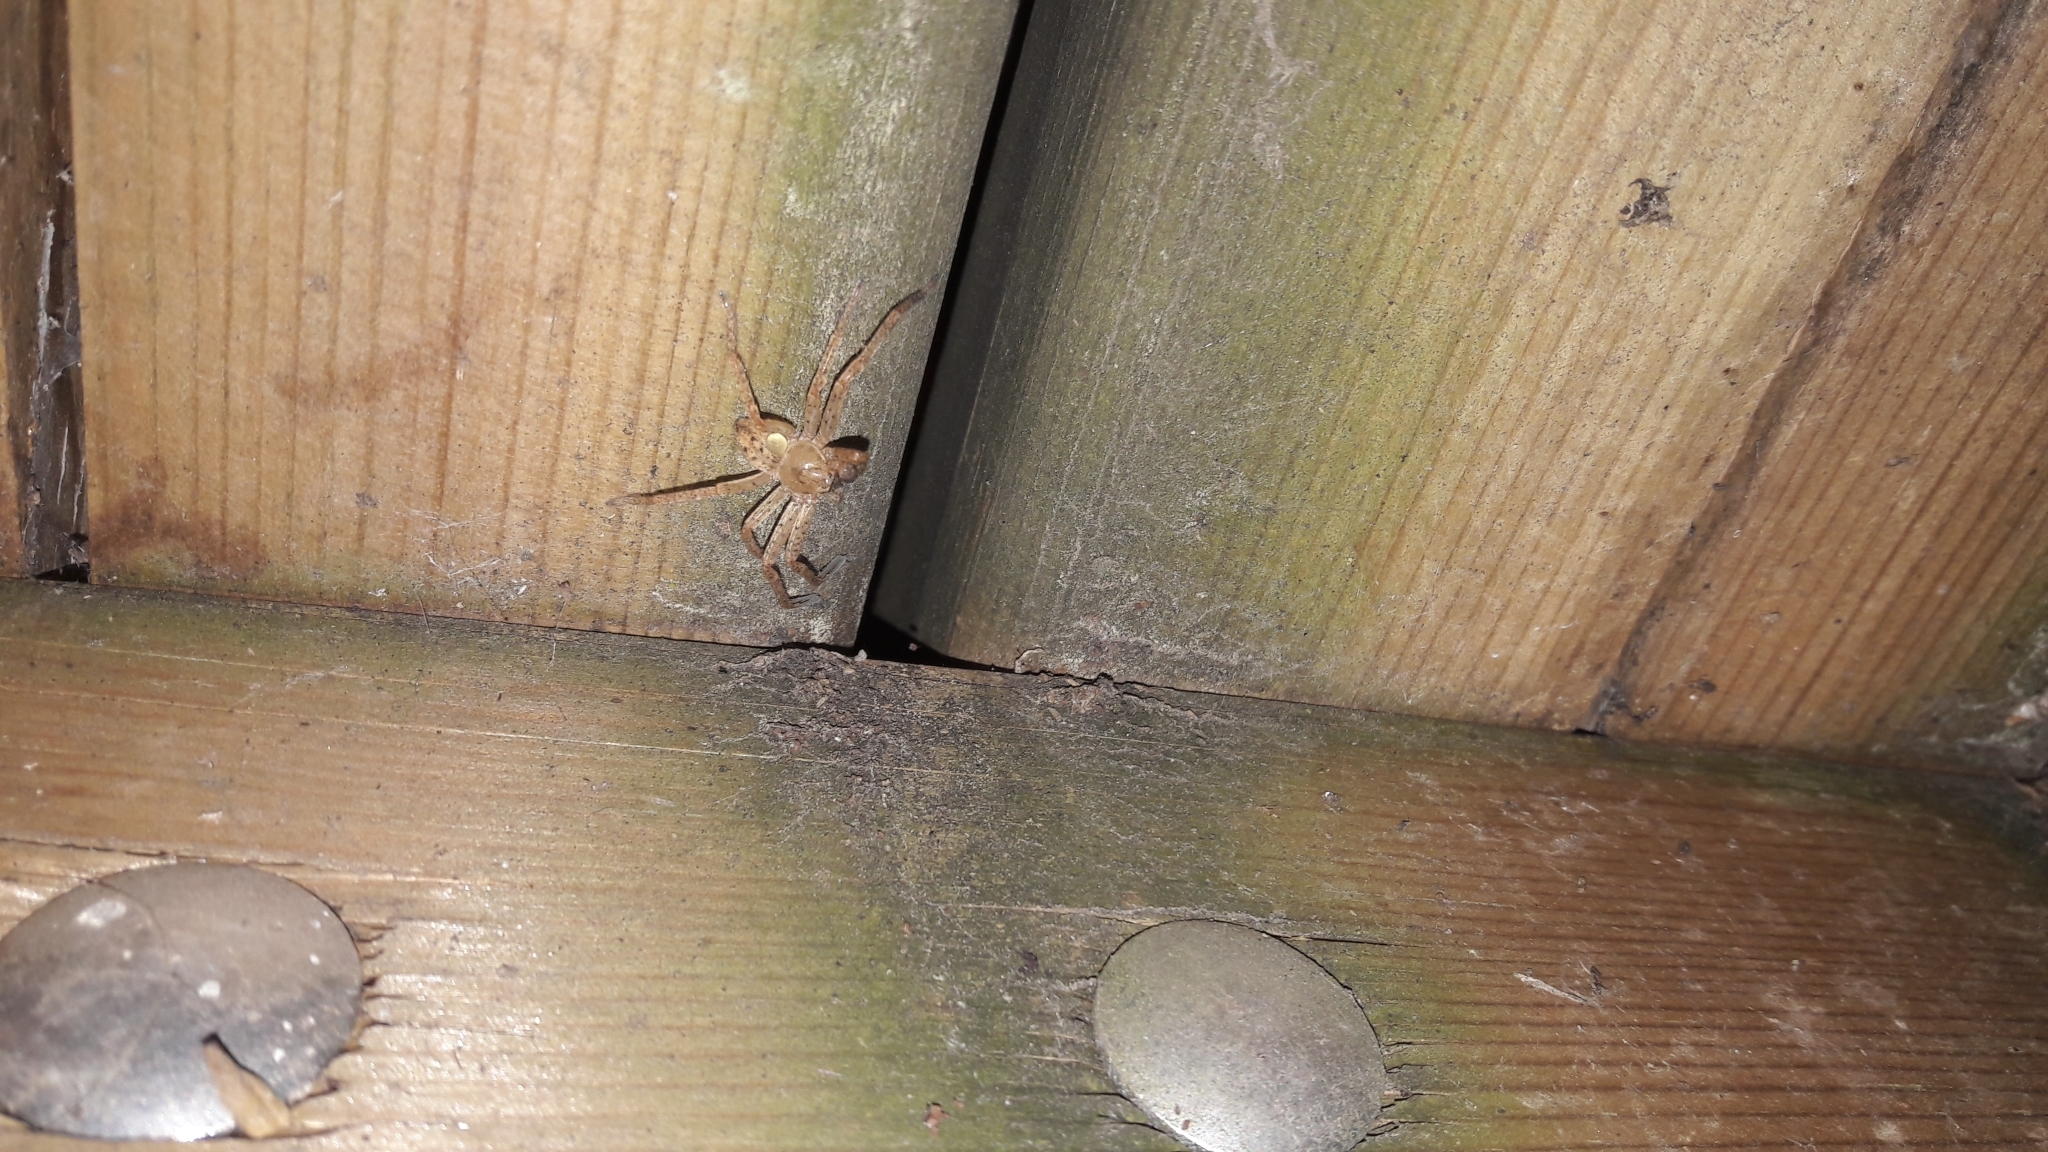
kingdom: Animalia
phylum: Arthropoda
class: Arachnida
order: Araneae
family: Sparassidae
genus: Olios
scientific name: Olios argelasius
